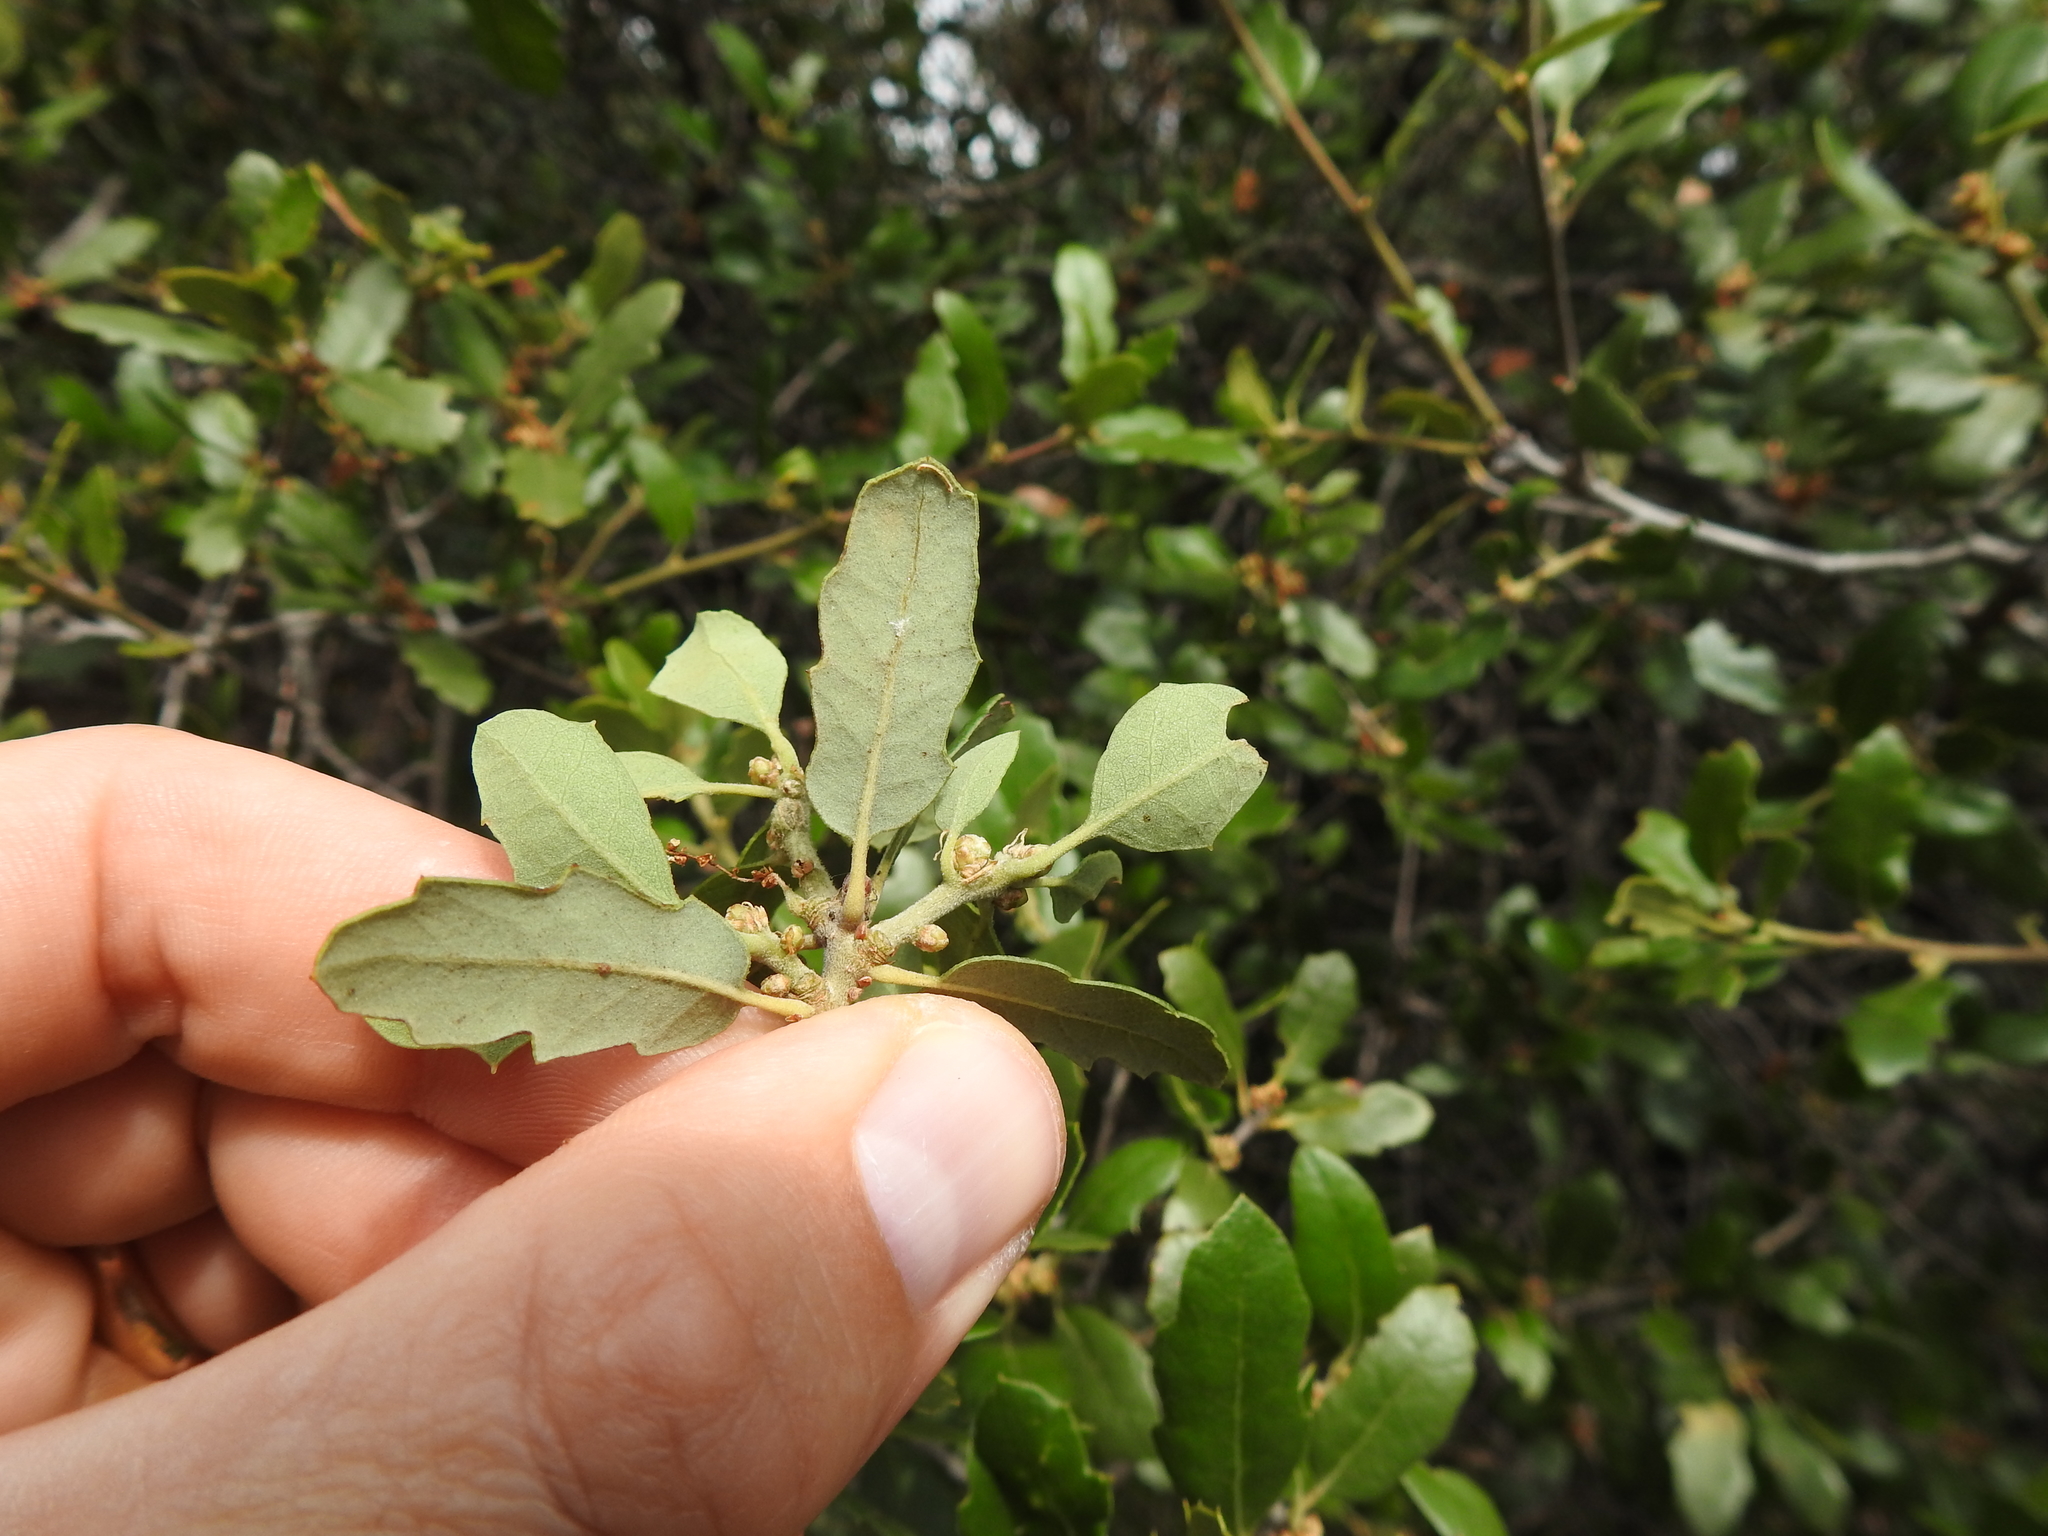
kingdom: Plantae
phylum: Tracheophyta
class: Magnoliopsida
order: Fagales
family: Fagaceae
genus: Quercus
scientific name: Quercus berberidifolia
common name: California scrub oak
